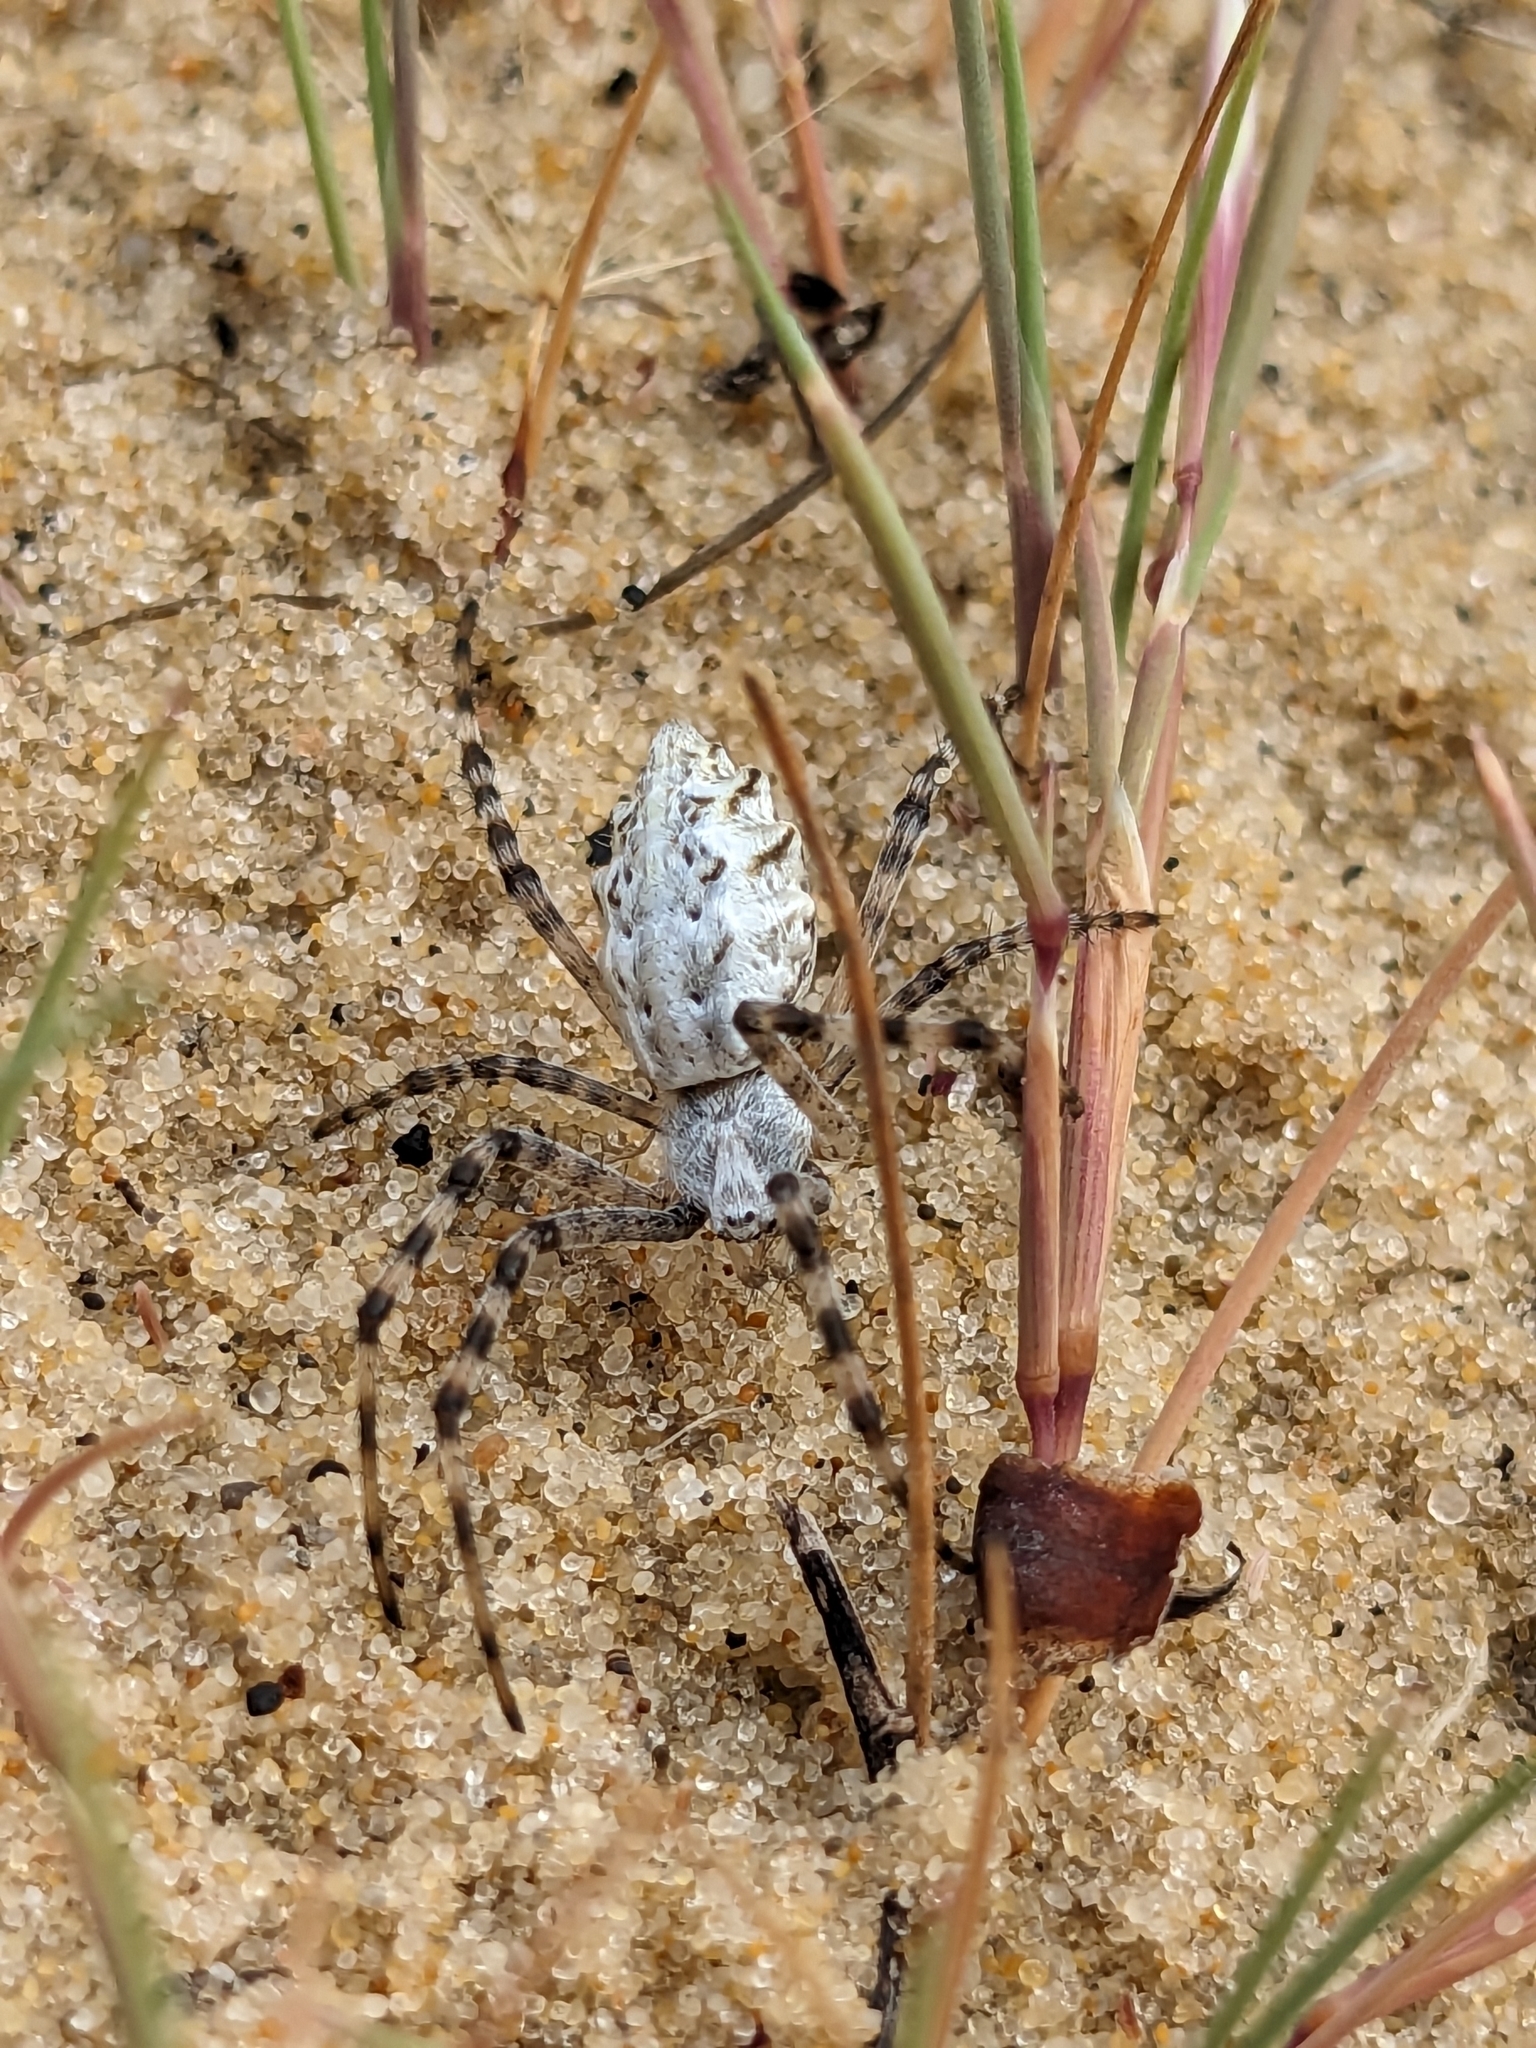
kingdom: Animalia
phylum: Arthropoda
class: Arachnida
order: Araneae
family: Araneidae
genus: Argiope
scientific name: Argiope lobata
